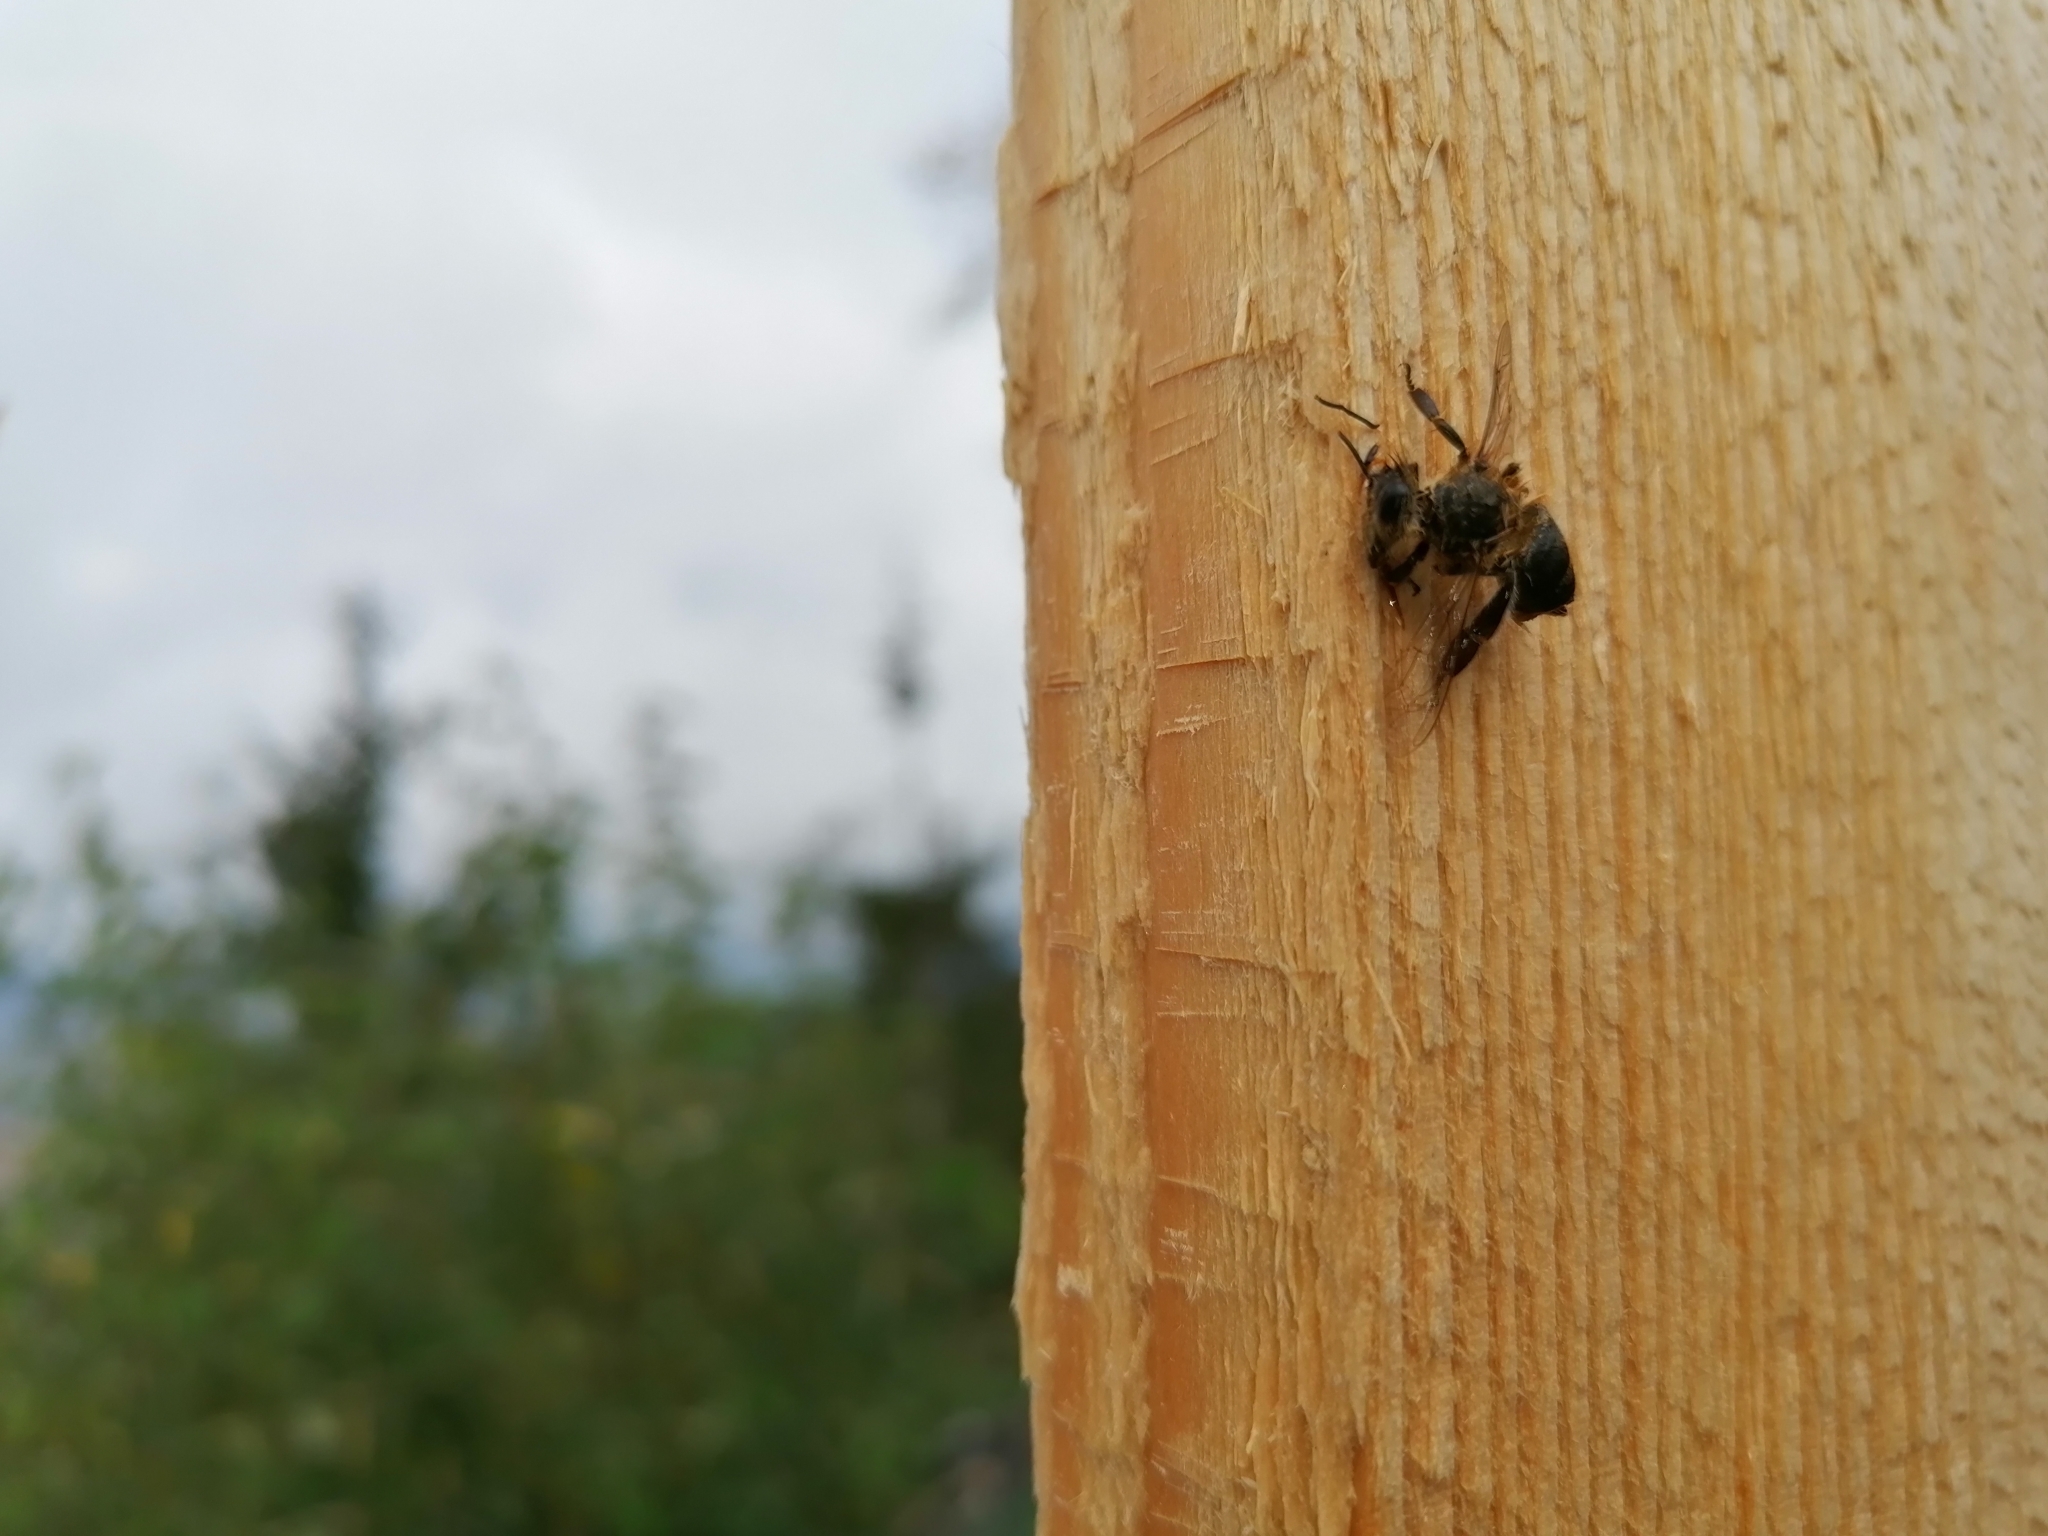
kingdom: Animalia
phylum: Arthropoda
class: Insecta
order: Hymenoptera
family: Apidae
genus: Apis
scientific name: Apis mellifera
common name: Honey bee
